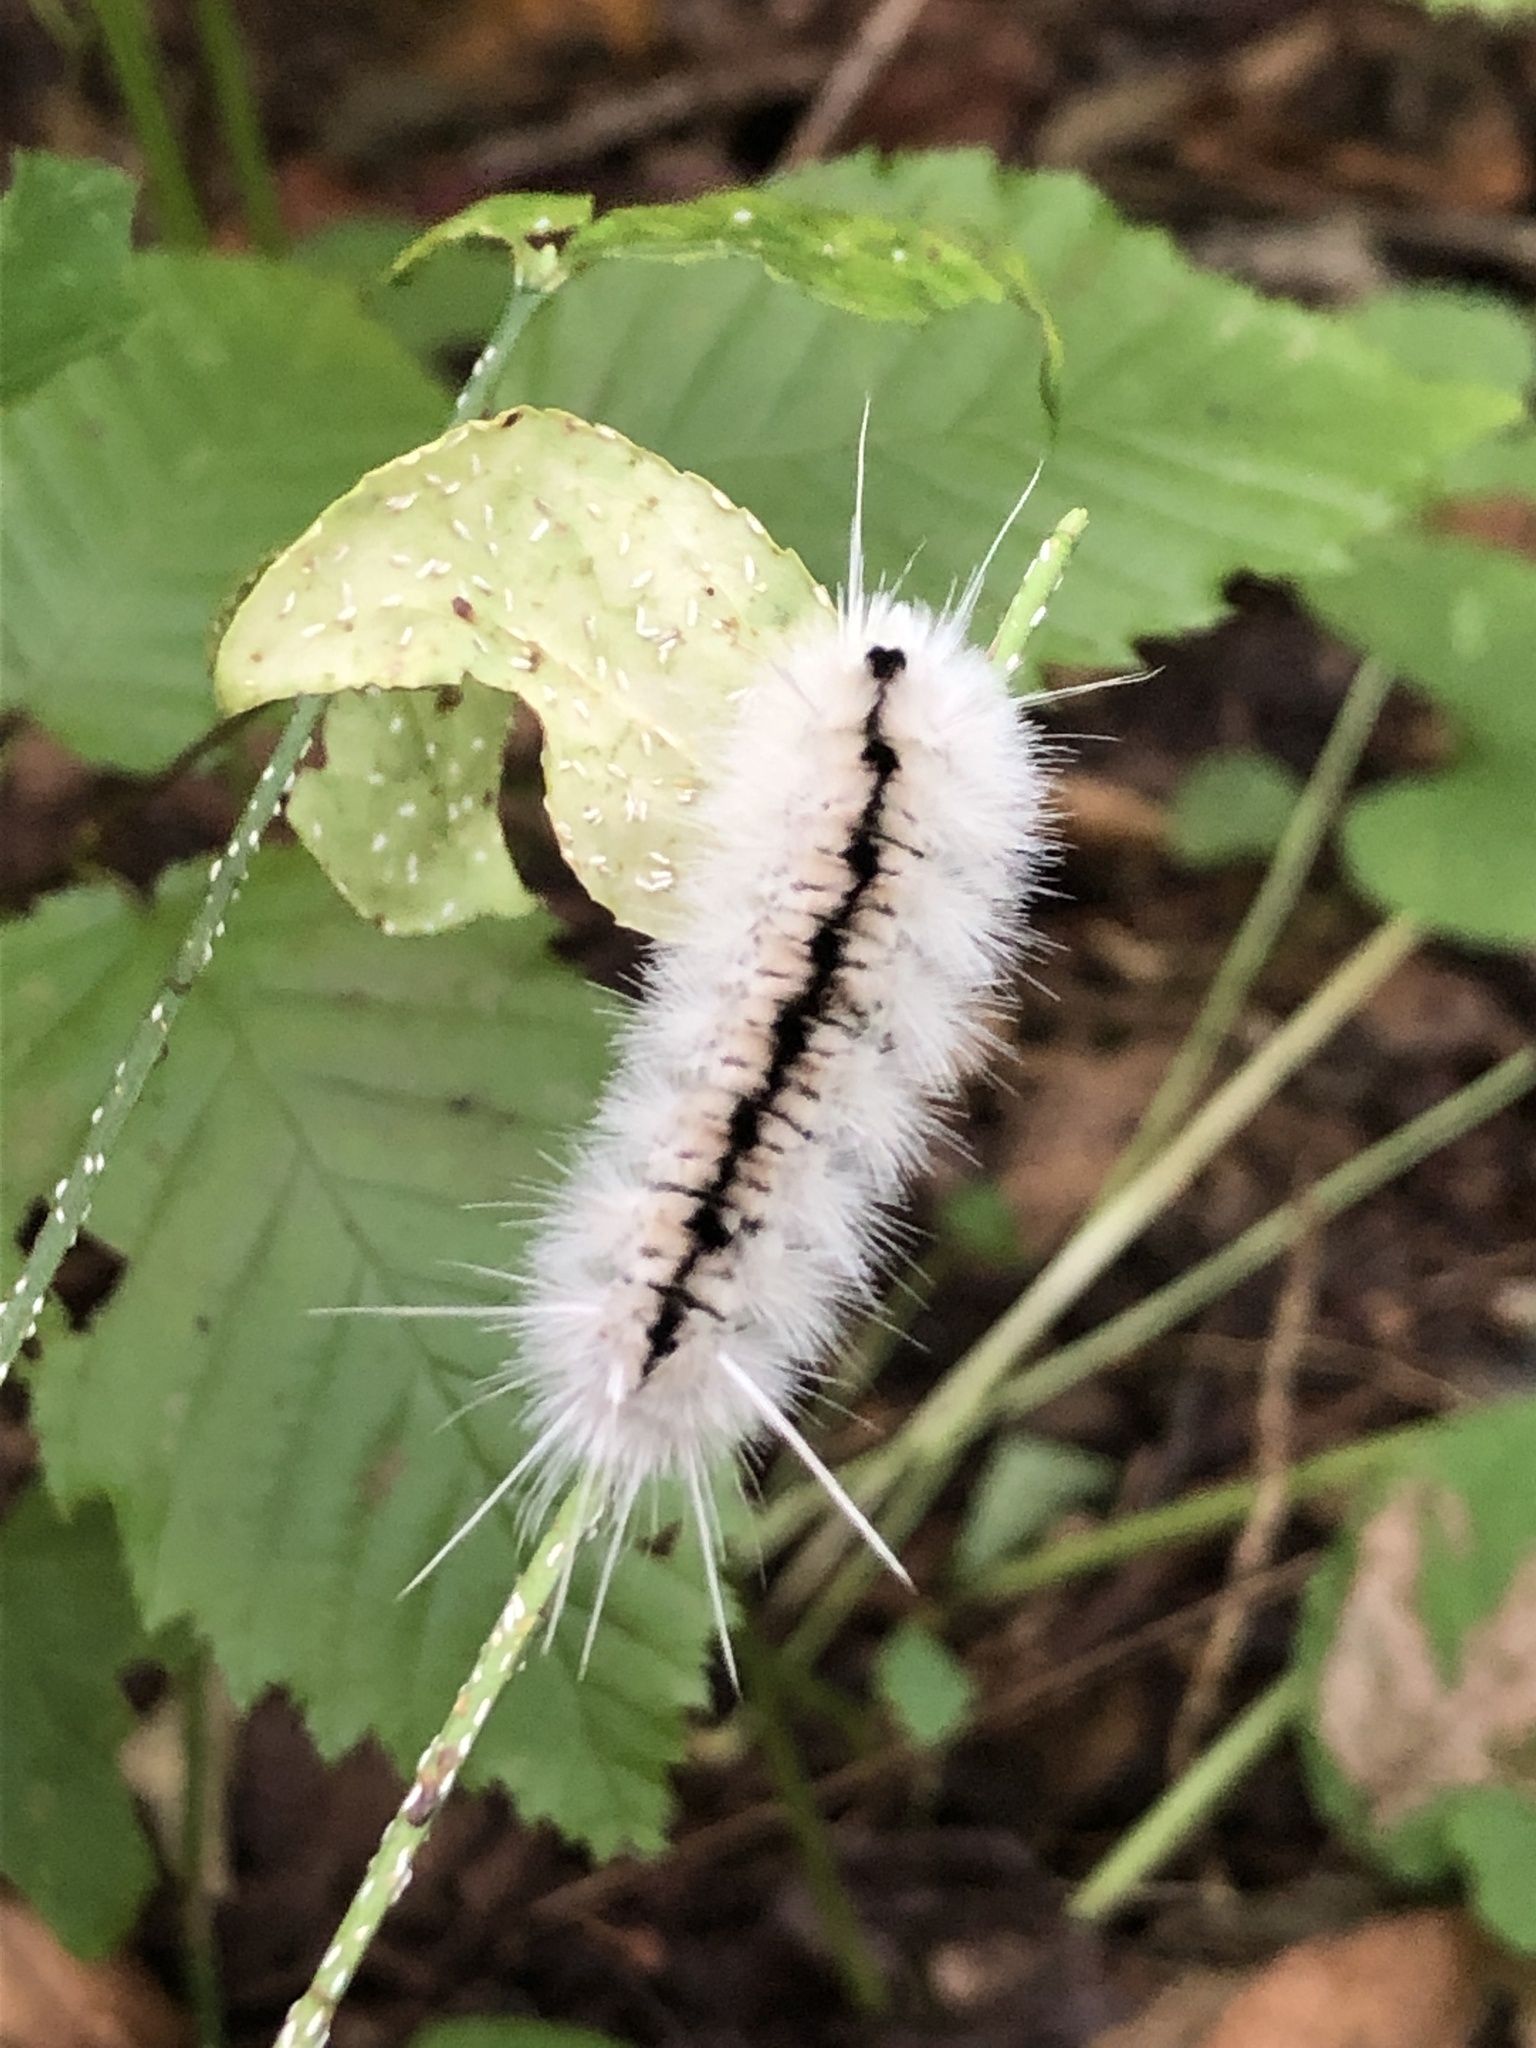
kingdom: Animalia
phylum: Arthropoda
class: Insecta
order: Lepidoptera
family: Erebidae
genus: Lophocampa
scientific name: Lophocampa caryae
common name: Hickory tussock moth
